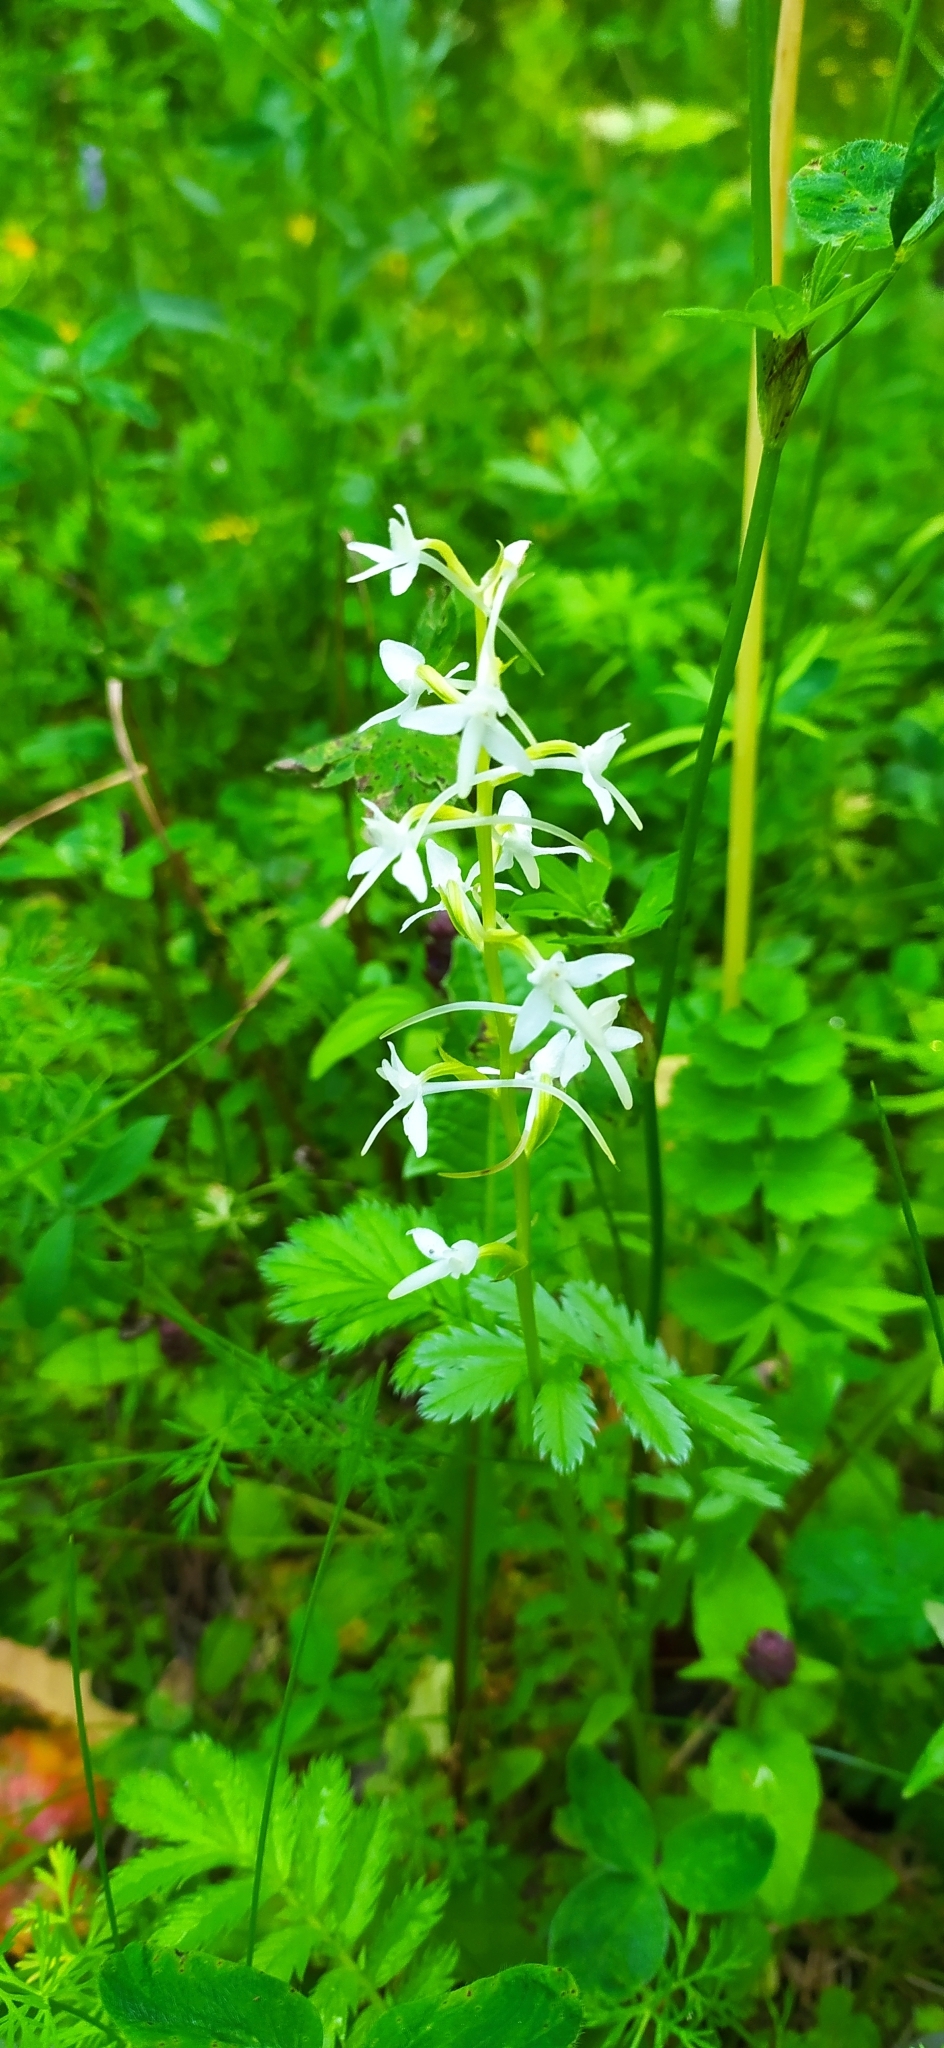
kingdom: Plantae
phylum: Tracheophyta
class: Liliopsida
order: Asparagales
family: Orchidaceae
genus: Platanthera
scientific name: Platanthera bifolia
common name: Lesser butterfly-orchid
